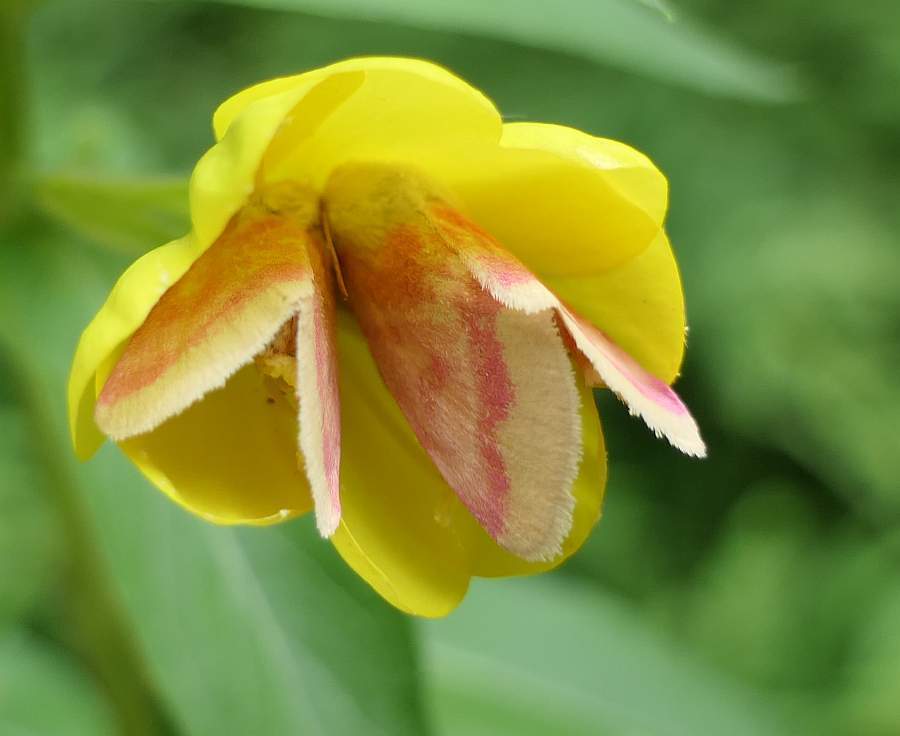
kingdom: Animalia
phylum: Arthropoda
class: Insecta
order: Lepidoptera
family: Noctuidae
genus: Schinia
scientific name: Schinia florida
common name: Primrose moth
